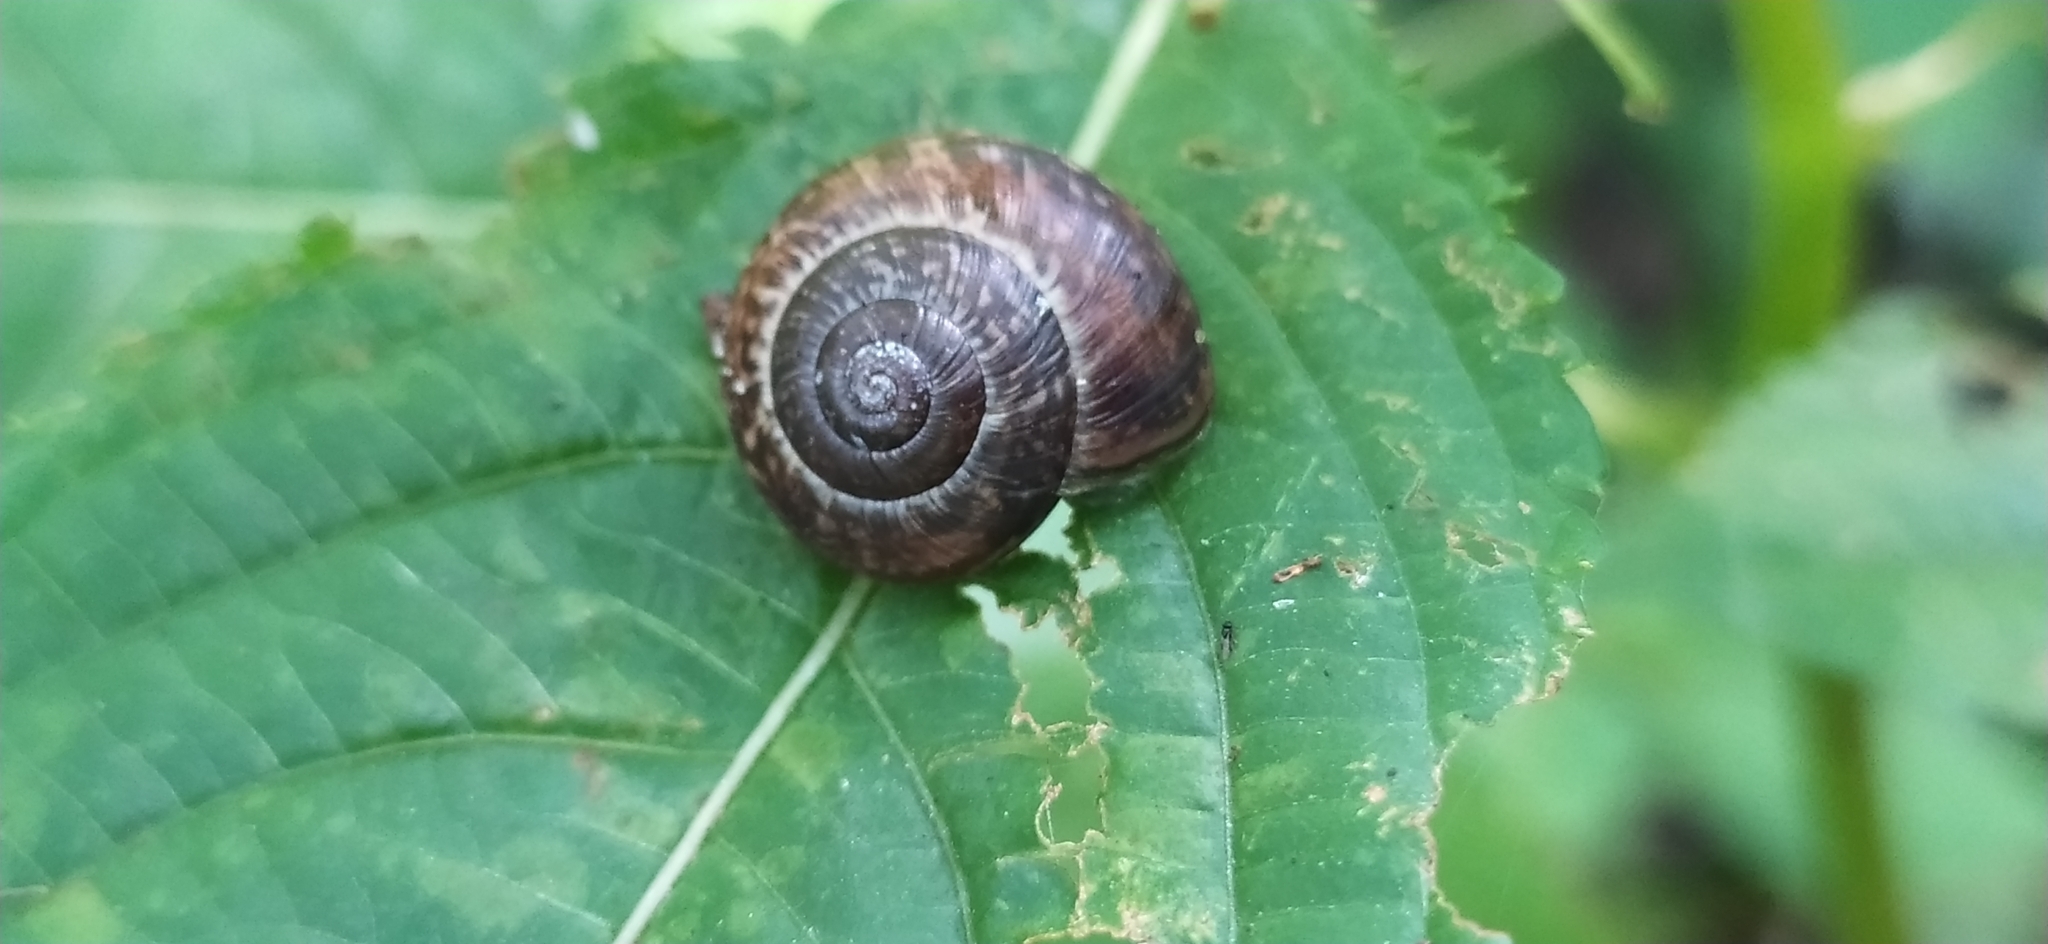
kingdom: Animalia
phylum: Mollusca
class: Gastropoda
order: Stylommatophora
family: Helicidae
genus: Arianta
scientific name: Arianta arbustorum
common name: Copse snail
